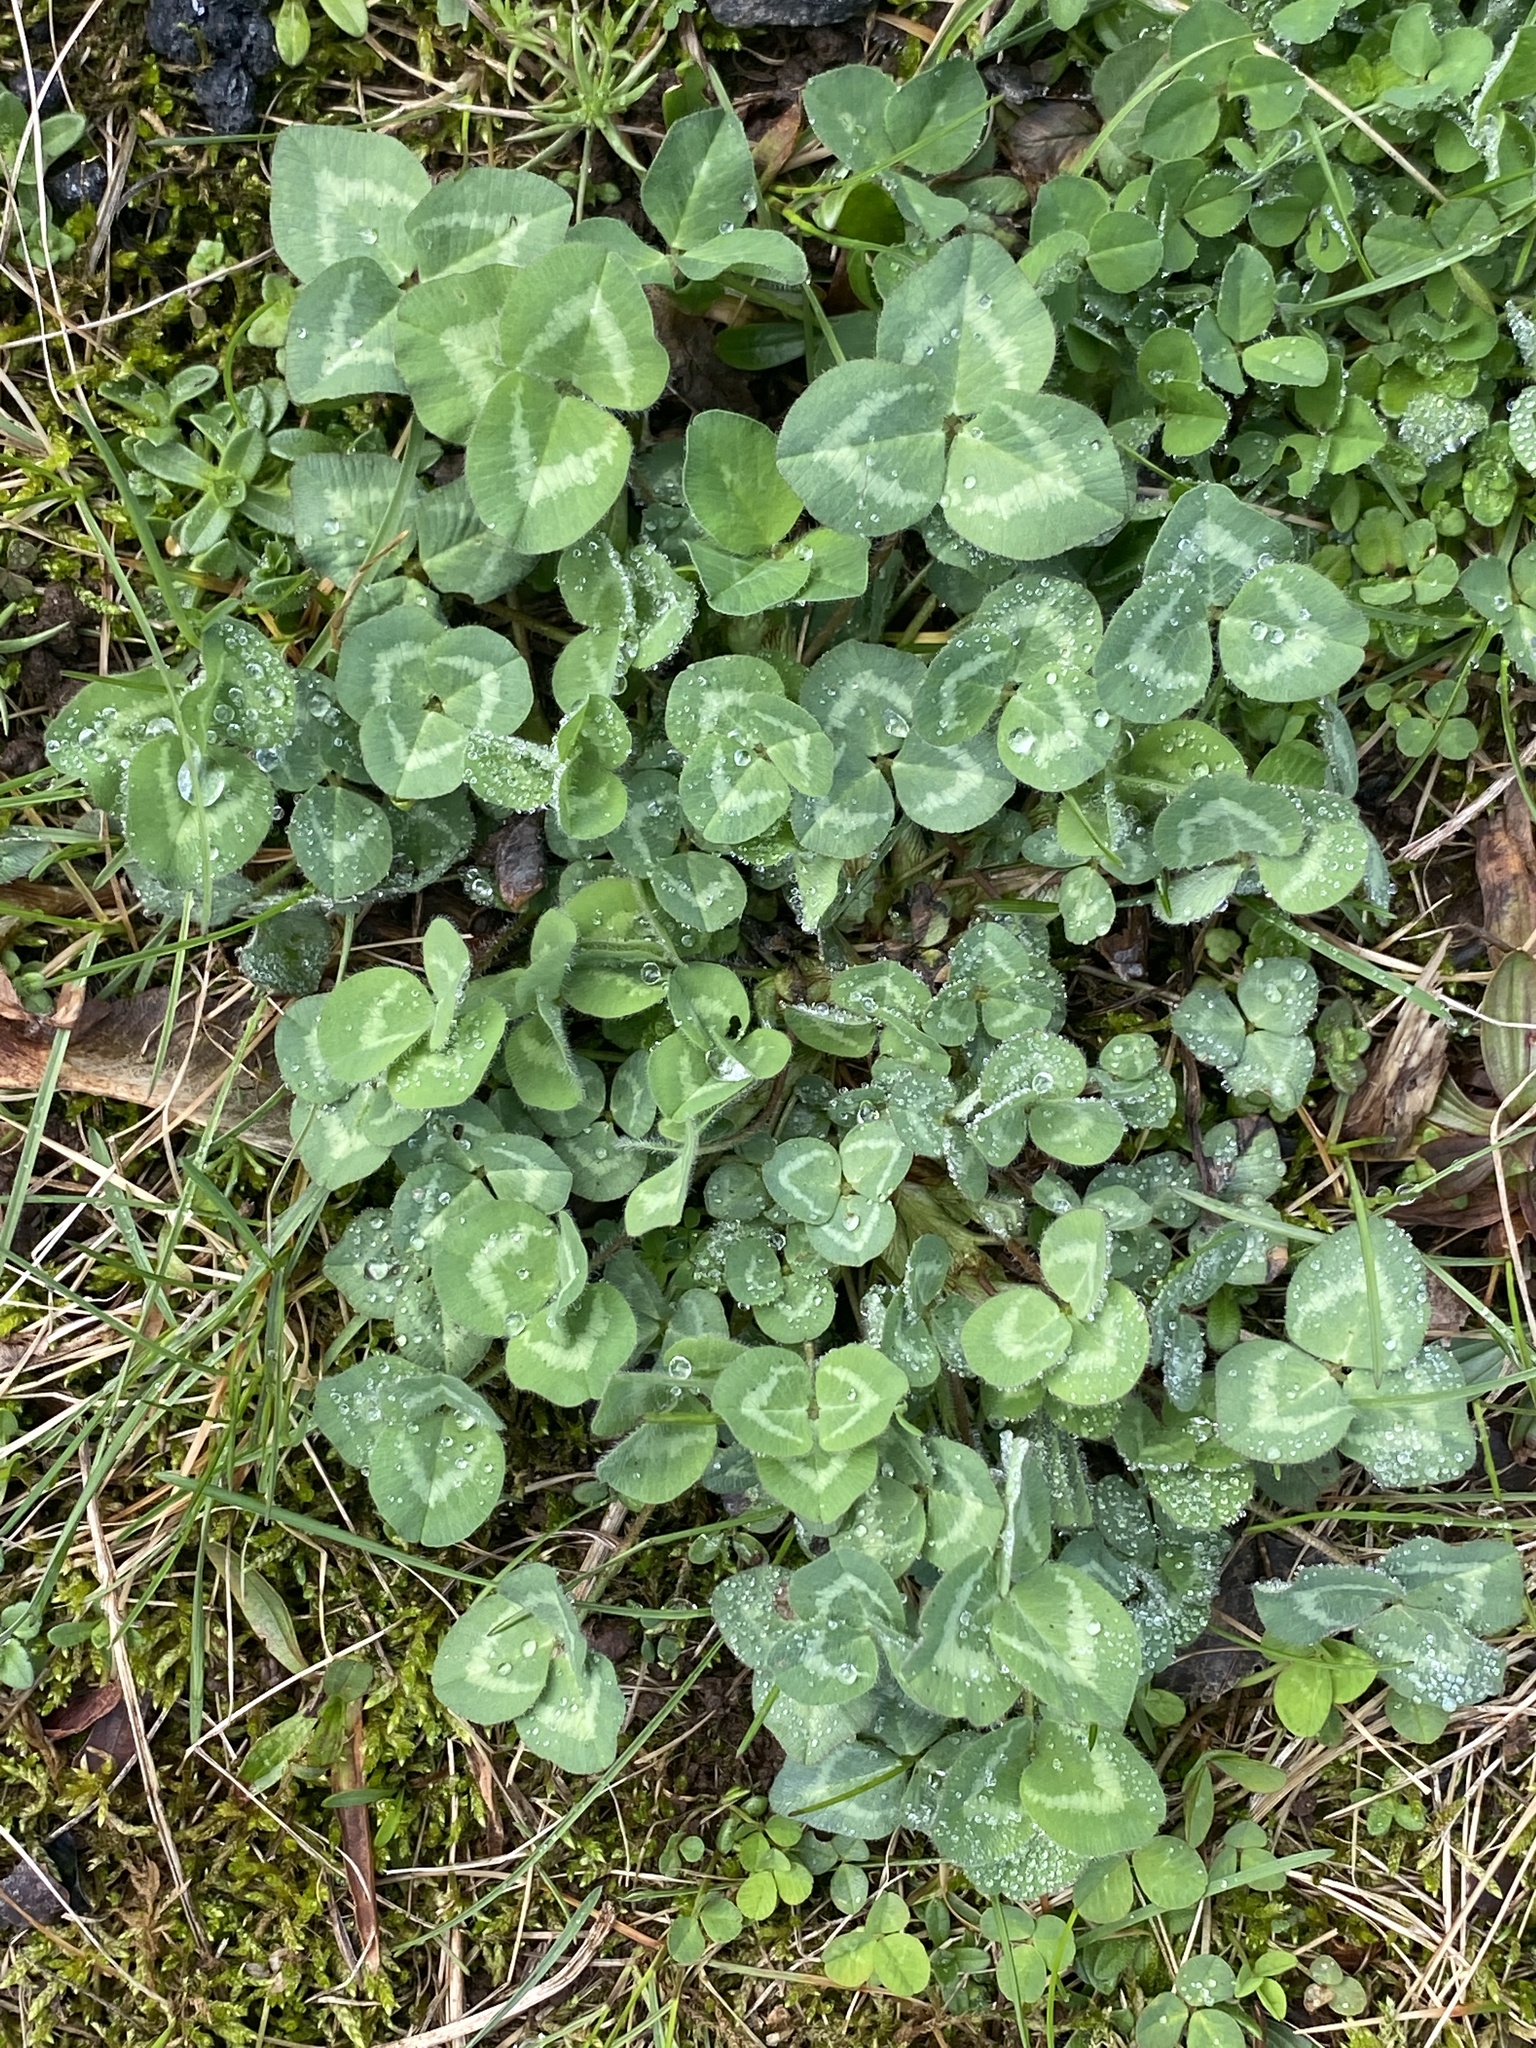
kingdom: Plantae
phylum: Tracheophyta
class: Magnoliopsida
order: Fabales
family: Fabaceae
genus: Trifolium
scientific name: Trifolium pratense
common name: Red clover
